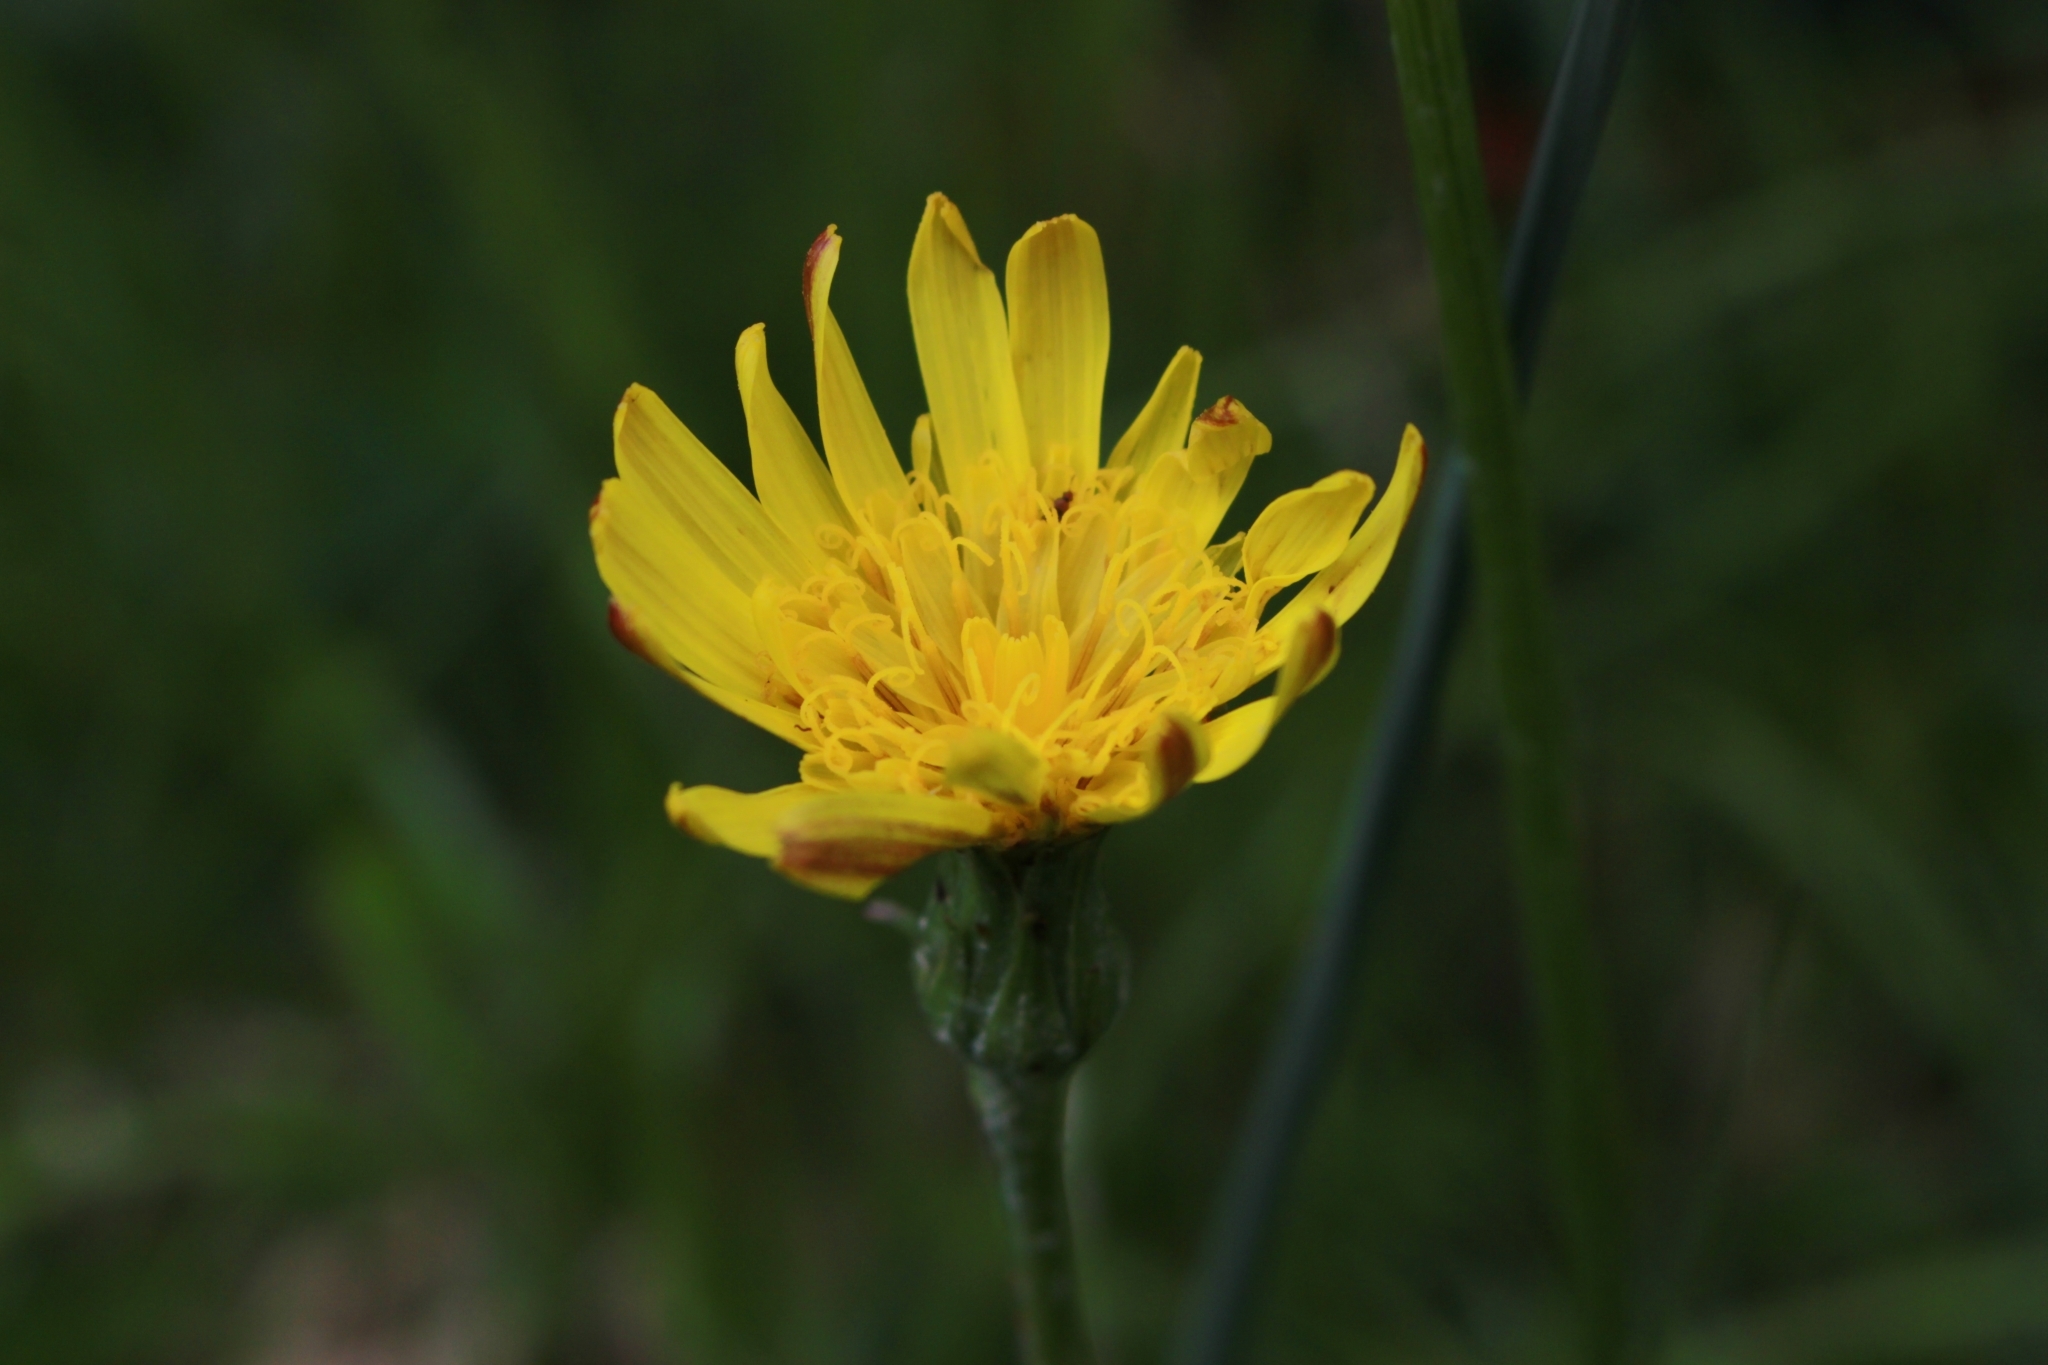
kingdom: Plantae
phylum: Tracheophyta
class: Magnoliopsida
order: Asterales
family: Asteraceae
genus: Scorzonera
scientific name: Scorzonera humilis
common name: Viper's-grass
